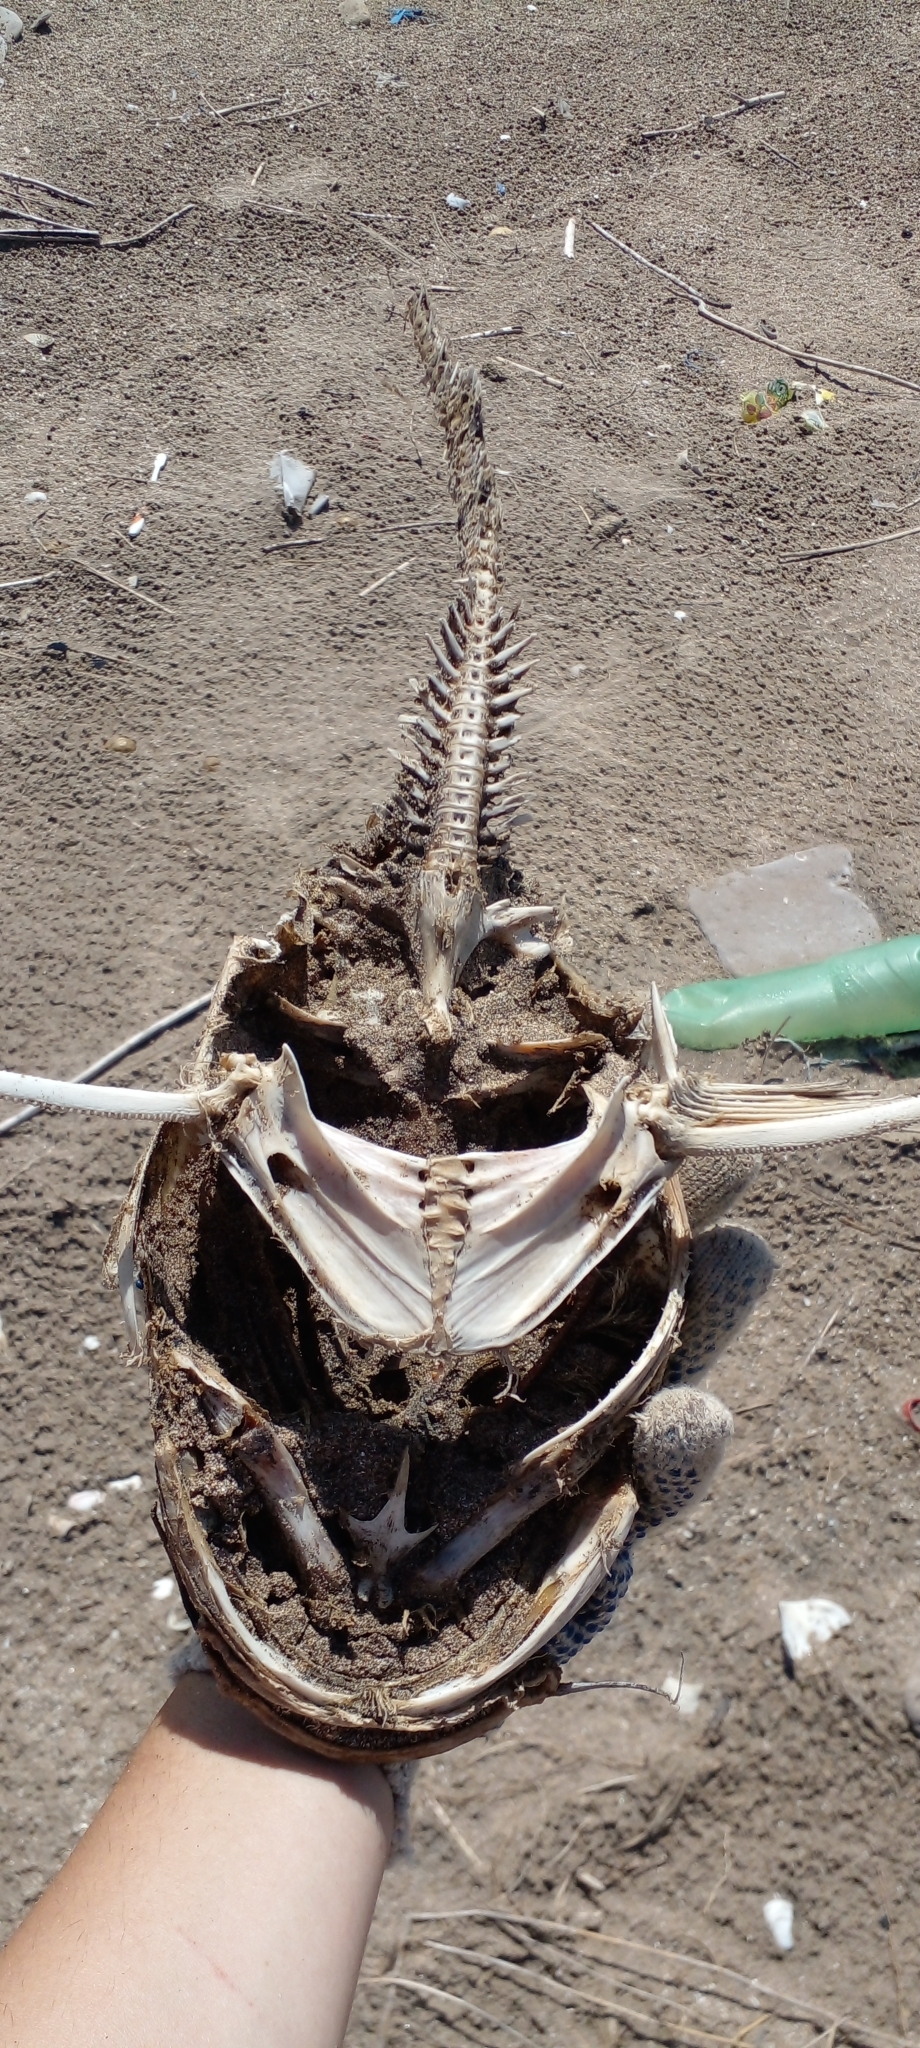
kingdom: Animalia
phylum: Chordata
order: Siluriformes
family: Ariidae
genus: Genidens
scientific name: Genidens barbus
